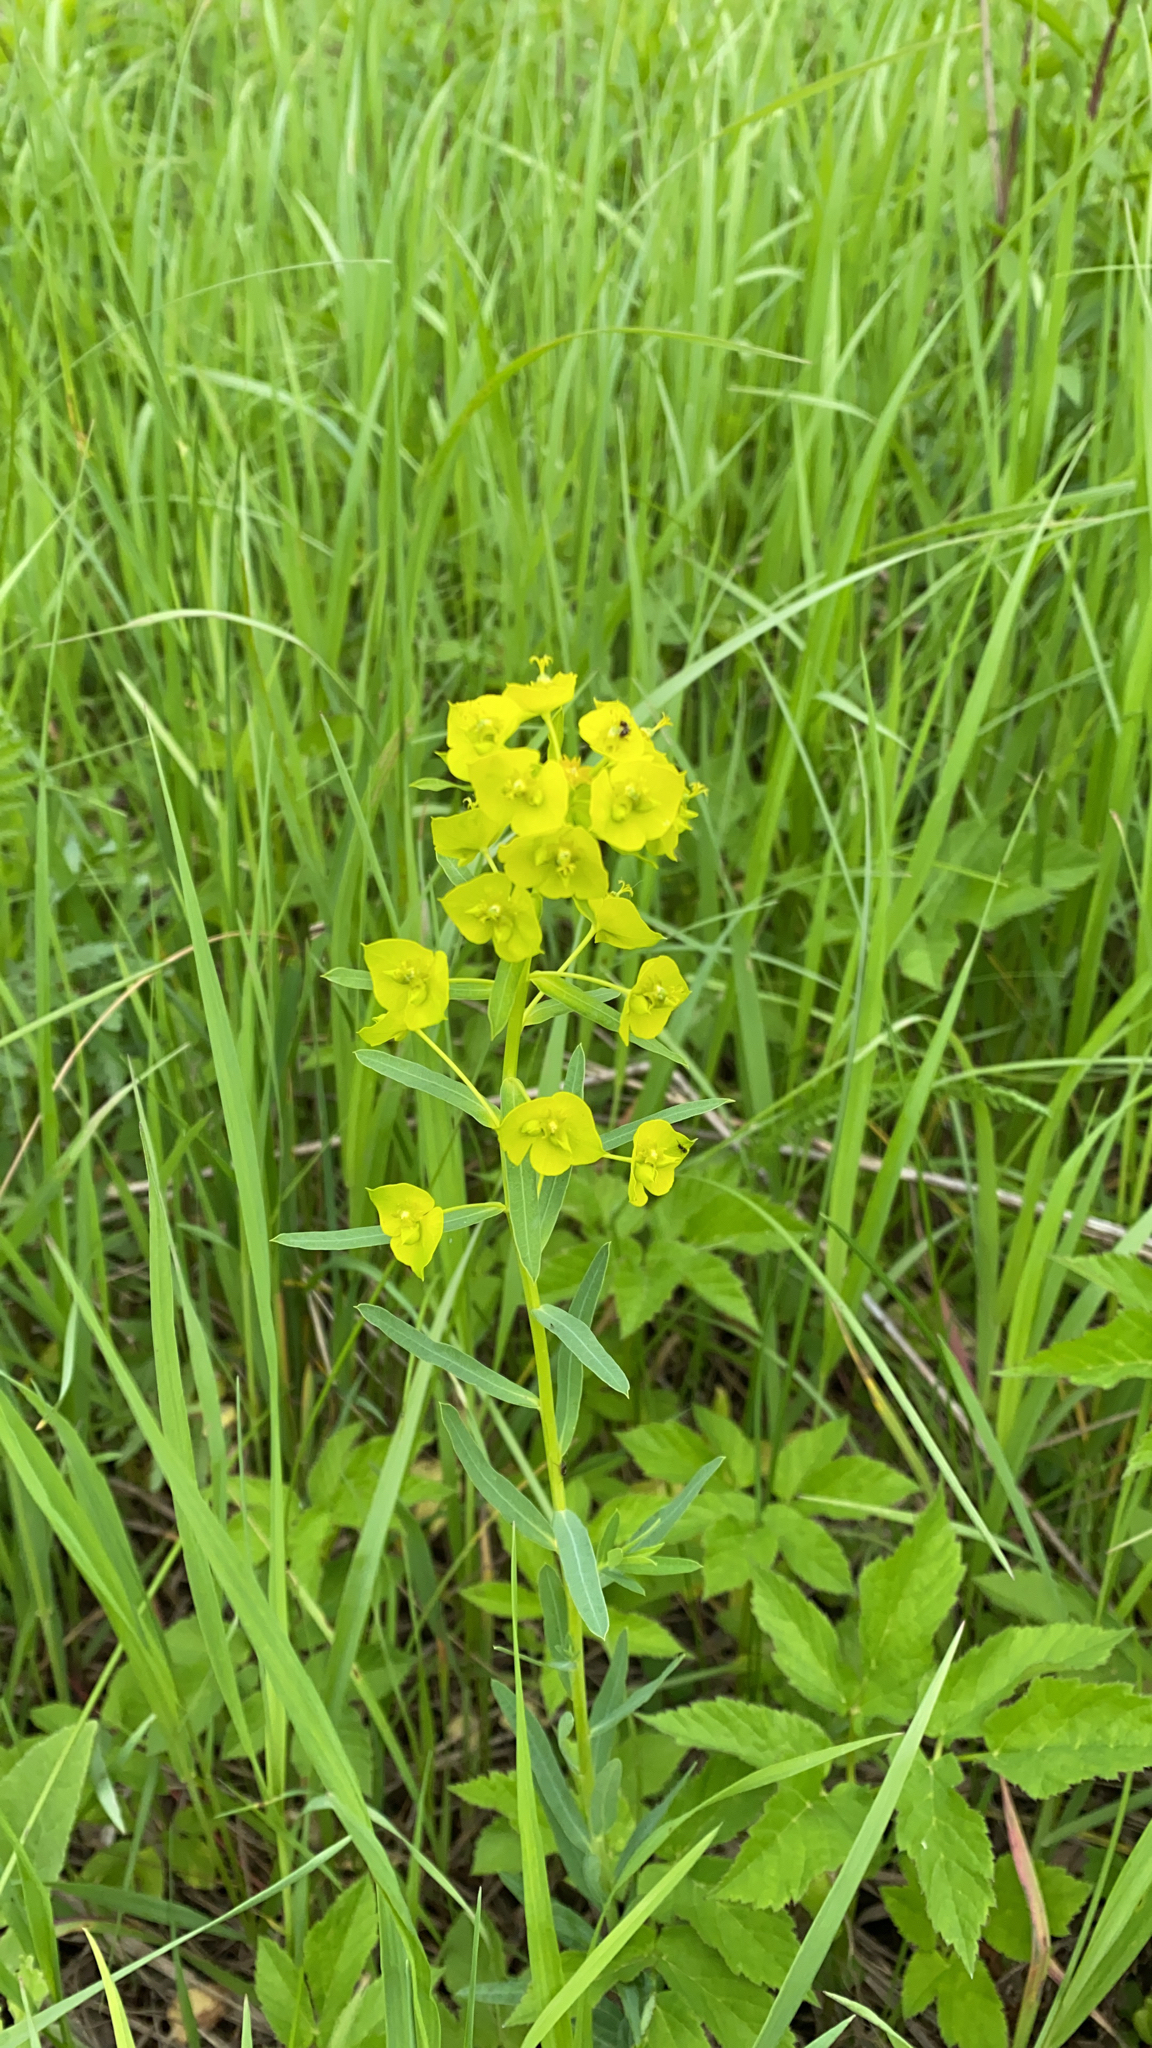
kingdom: Plantae
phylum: Tracheophyta
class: Magnoliopsida
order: Malpighiales
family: Euphorbiaceae
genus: Euphorbia
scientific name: Euphorbia virgata
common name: Leafy spurge
